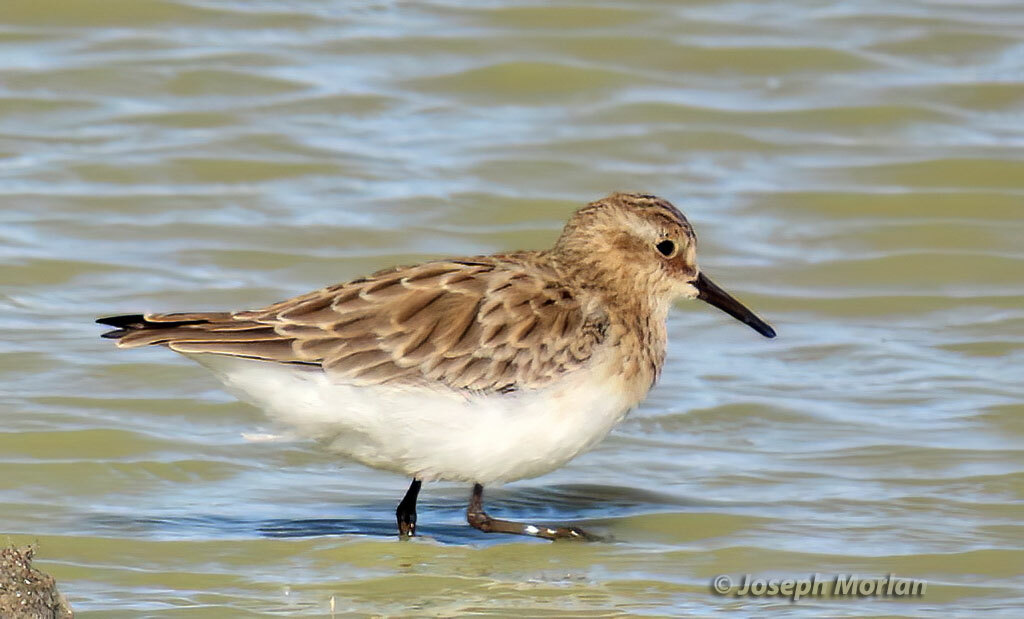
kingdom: Animalia
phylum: Chordata
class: Aves
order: Charadriiformes
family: Scolopacidae
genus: Calidris
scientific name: Calidris bairdii
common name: Baird's sandpiper
